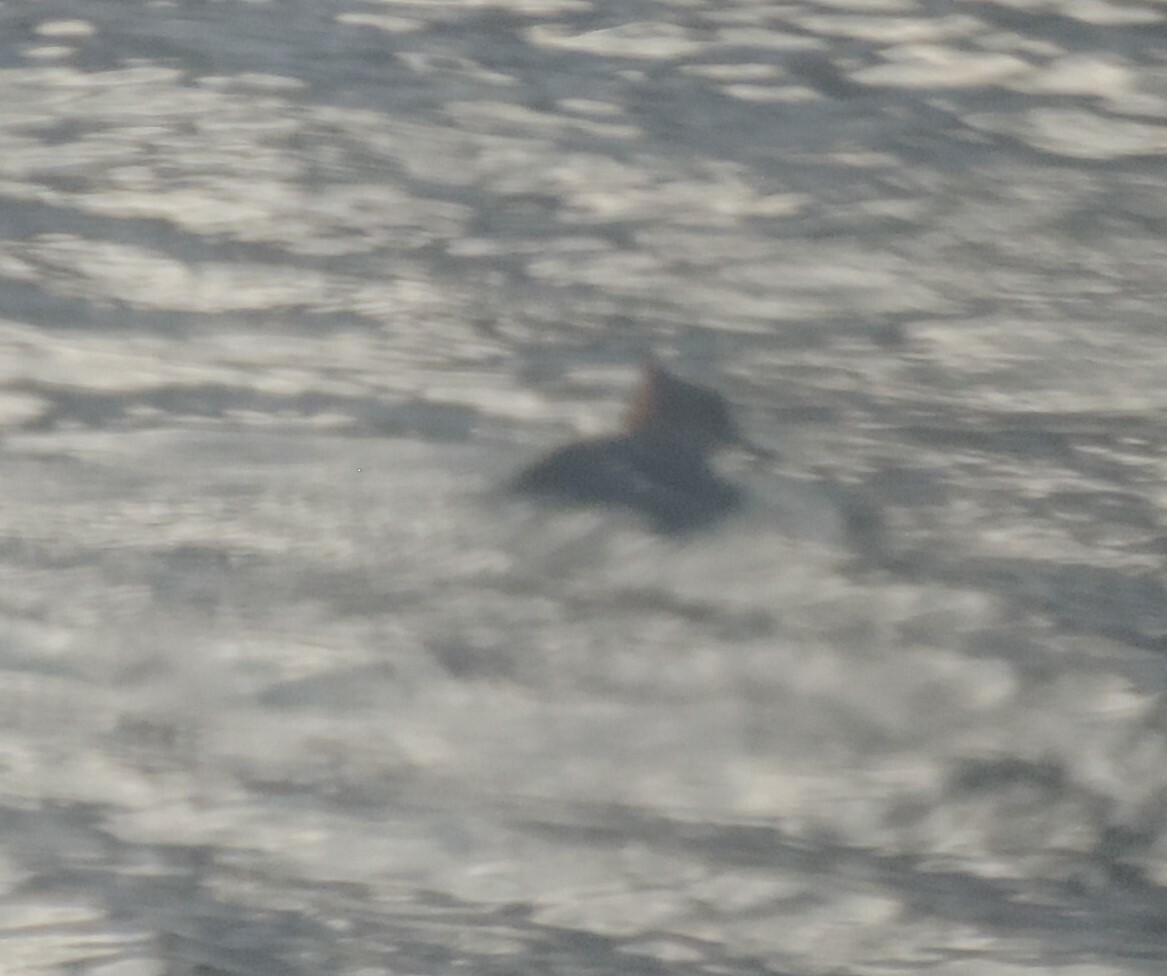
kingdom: Animalia
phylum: Chordata
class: Aves
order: Anseriformes
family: Anatidae
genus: Lophodytes
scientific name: Lophodytes cucullatus
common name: Hooded merganser
